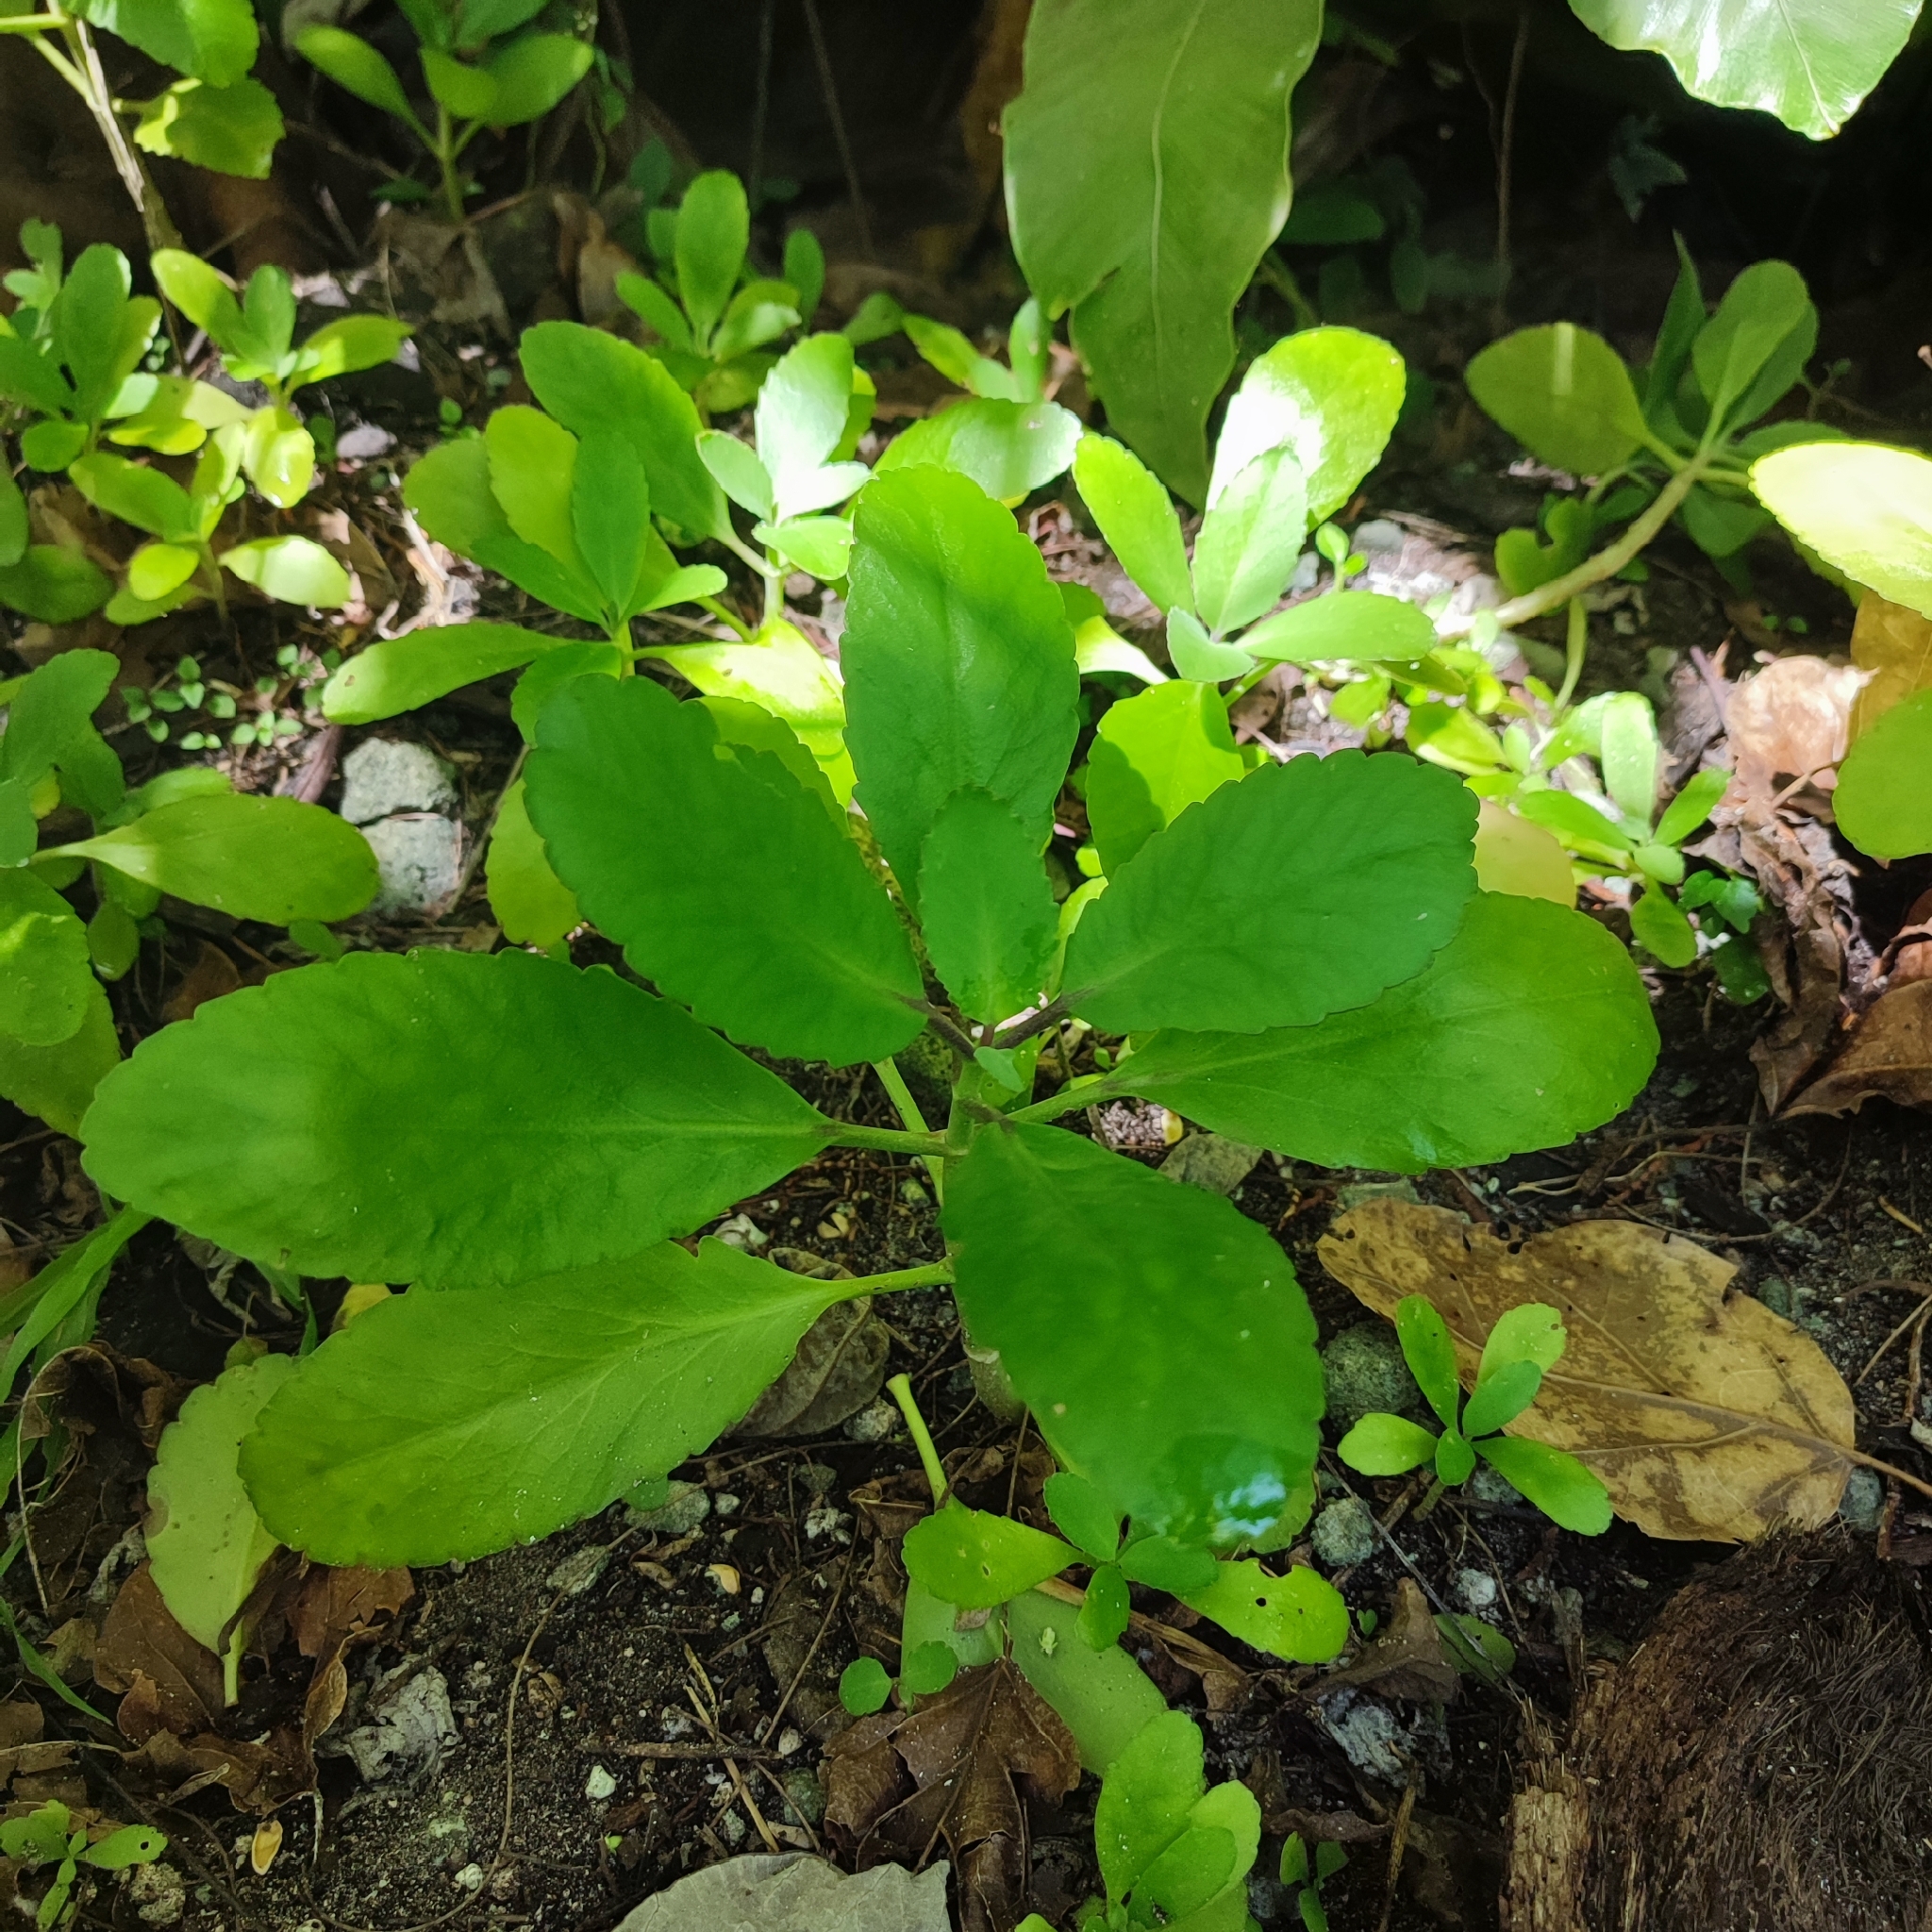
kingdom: Plantae
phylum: Tracheophyta
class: Magnoliopsida
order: Saxifragales
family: Crassulaceae
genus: Kalanchoe
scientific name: Kalanchoe pinnata
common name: Cathedral bells
